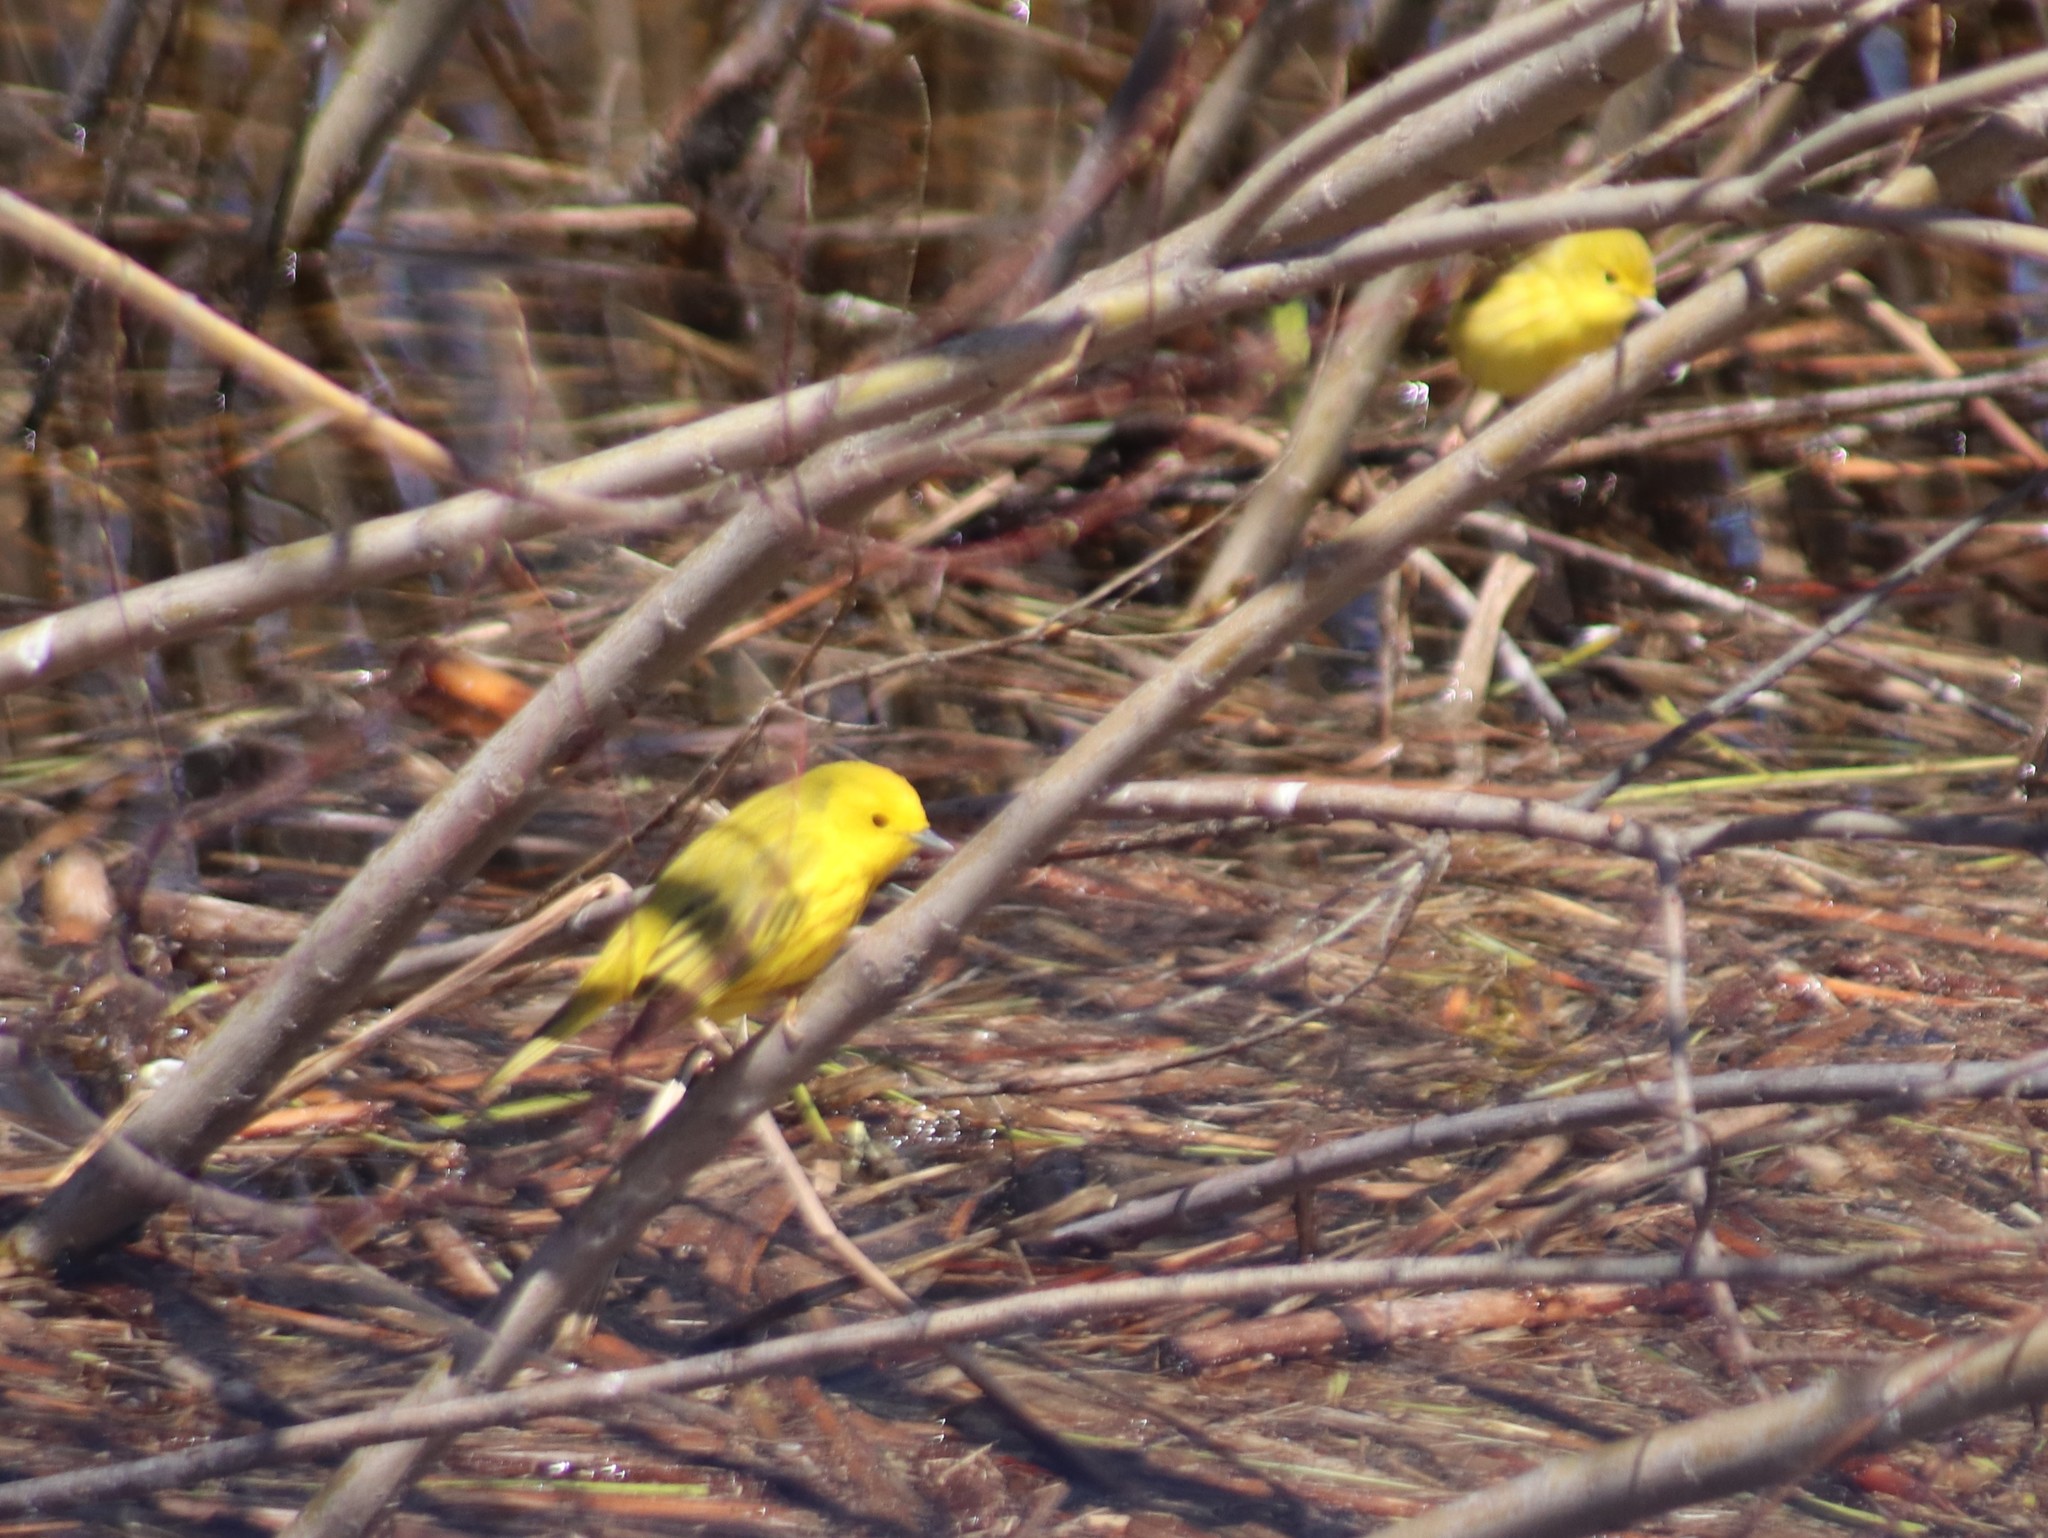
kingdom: Animalia
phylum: Chordata
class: Aves
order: Passeriformes
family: Parulidae
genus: Setophaga
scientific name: Setophaga petechia
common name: Yellow warbler
